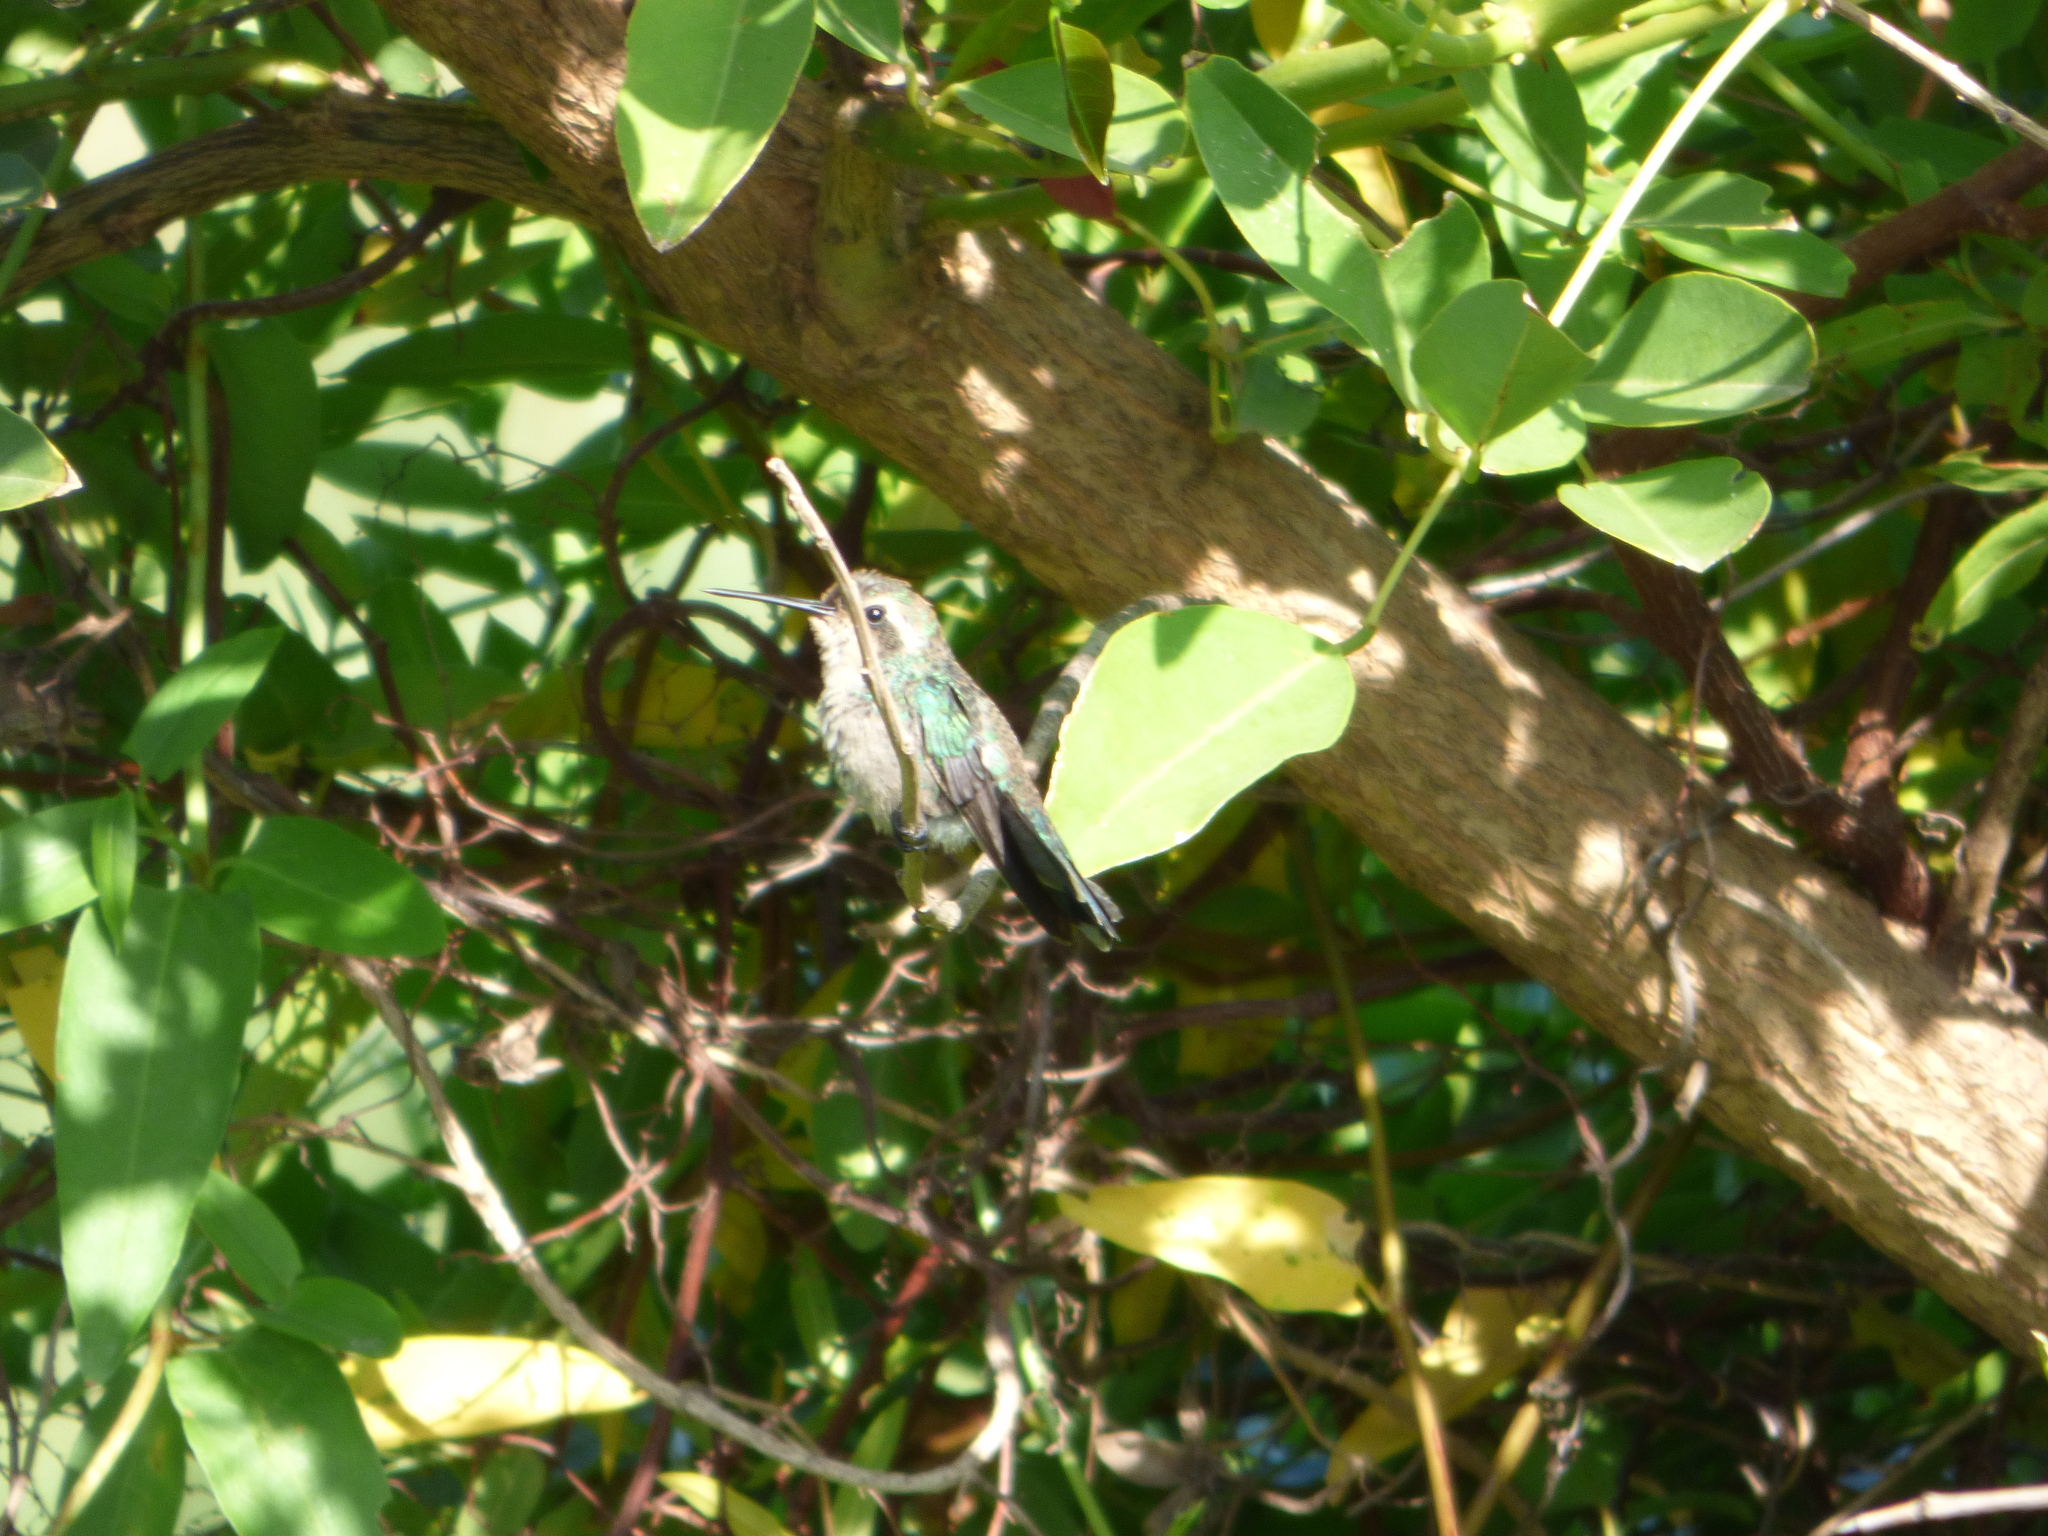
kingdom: Animalia
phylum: Chordata
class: Aves
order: Apodiformes
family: Trochilidae
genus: Chlorostilbon
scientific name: Chlorostilbon lucidus
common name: Glittering-bellied emerald
